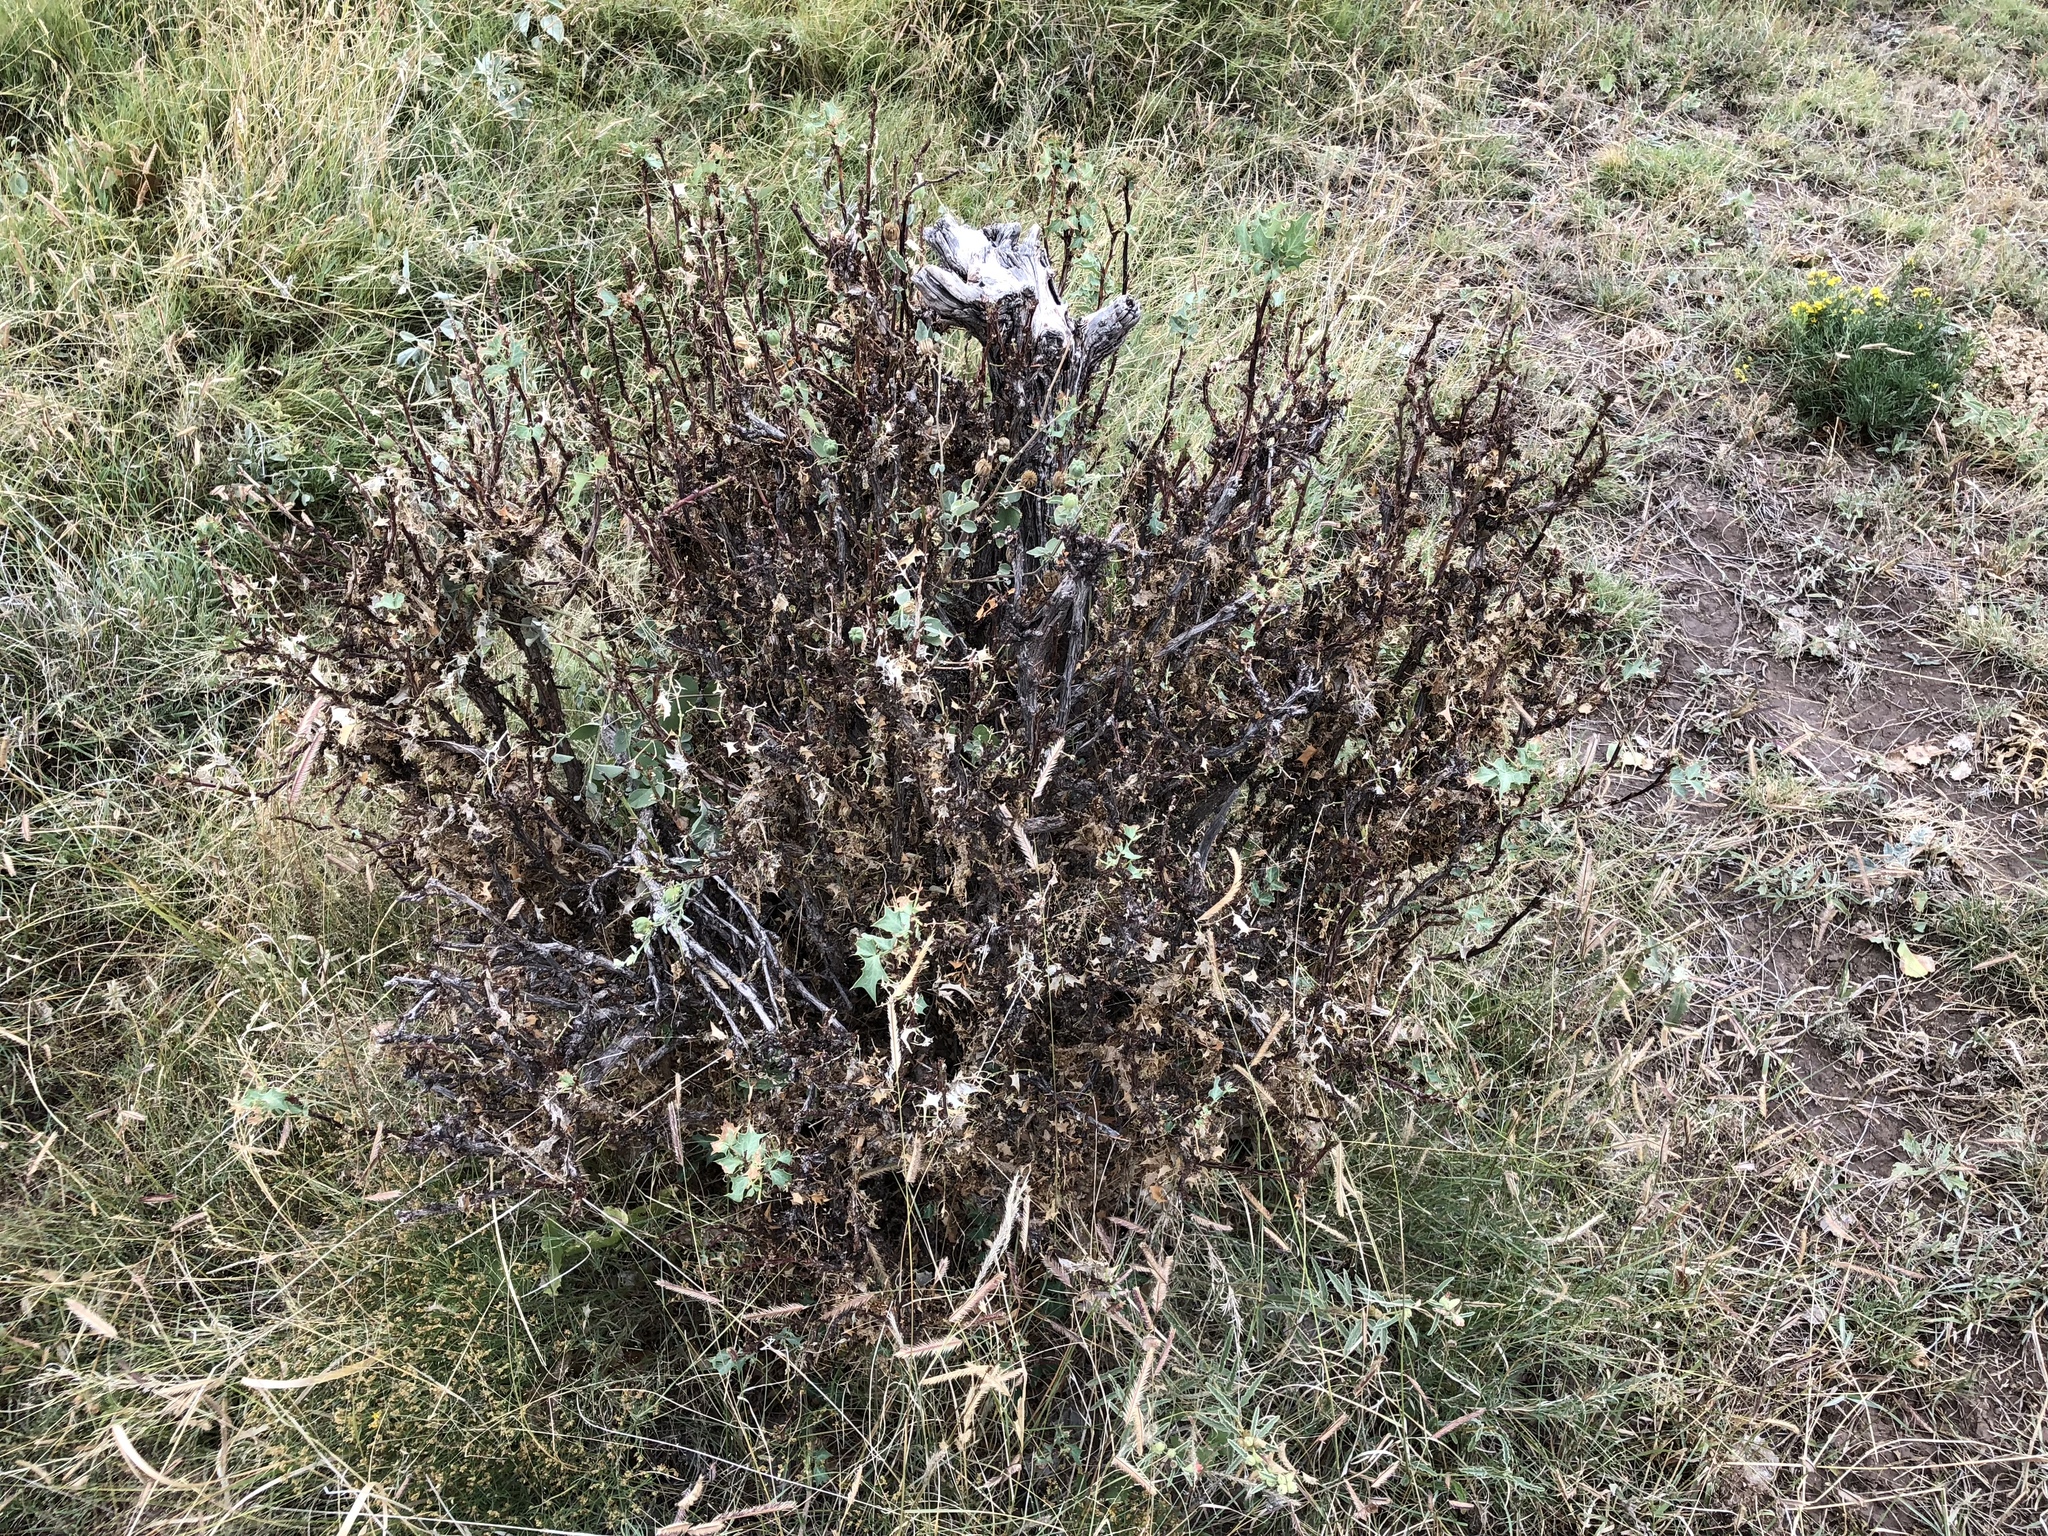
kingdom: Plantae
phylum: Tracheophyta
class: Magnoliopsida
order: Ranunculales
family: Berberidaceae
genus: Alloberberis
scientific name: Alloberberis trifoliolata
